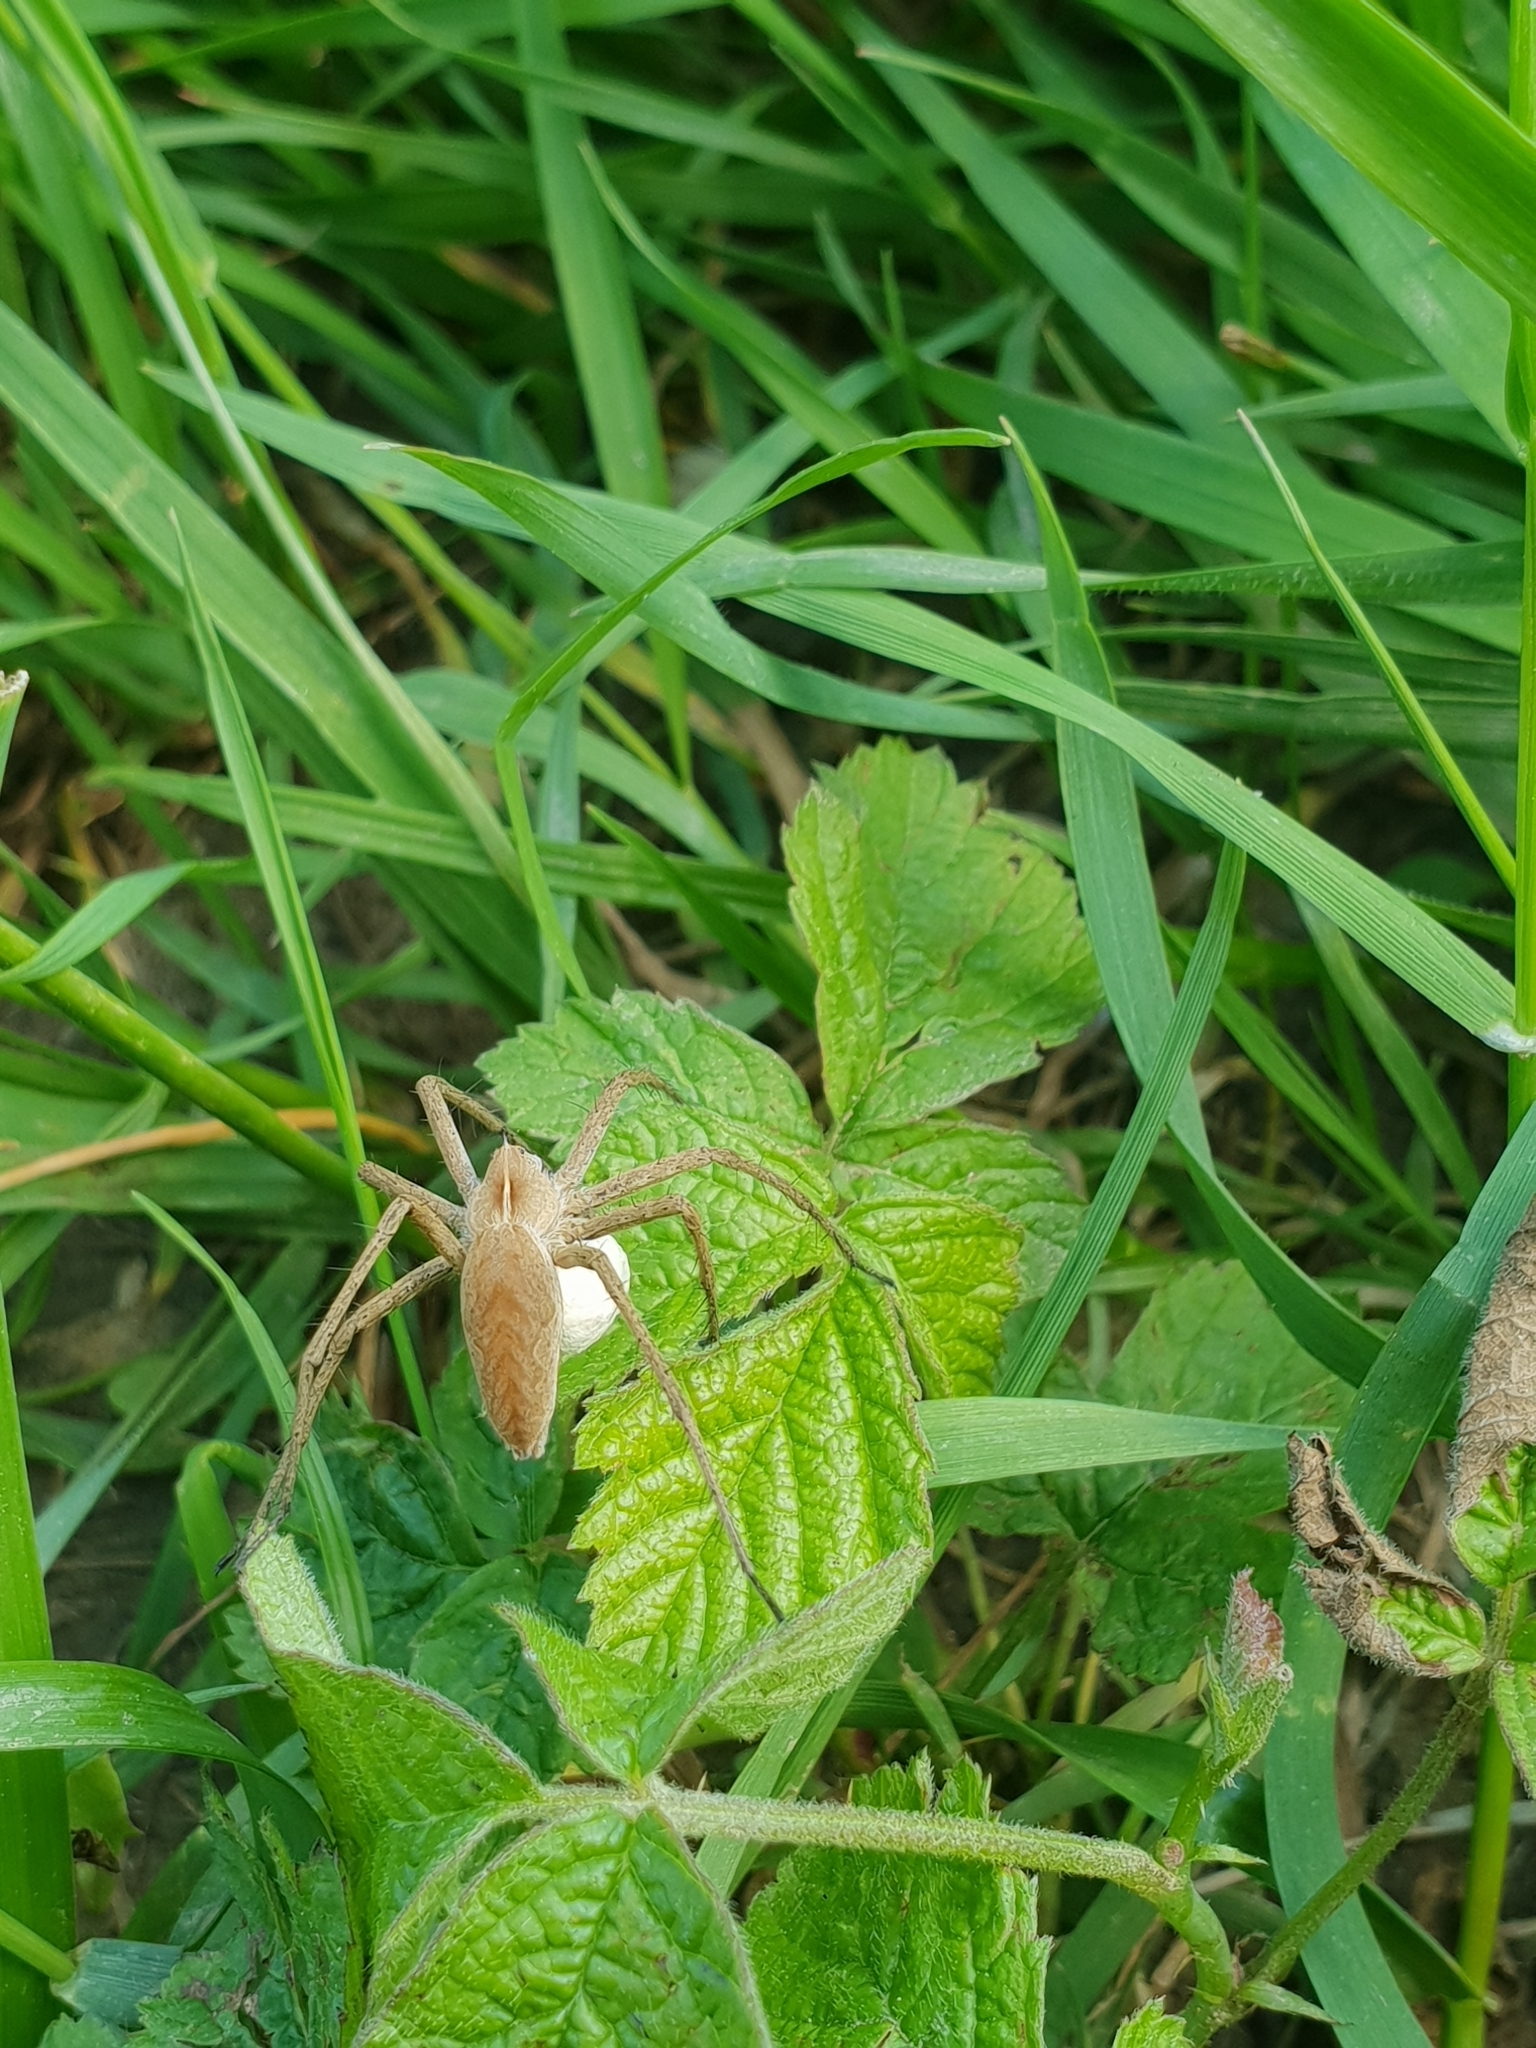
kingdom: Animalia
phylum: Arthropoda
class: Arachnida
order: Araneae
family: Pisauridae
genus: Pisaura
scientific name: Pisaura mirabilis
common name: Tent spider
